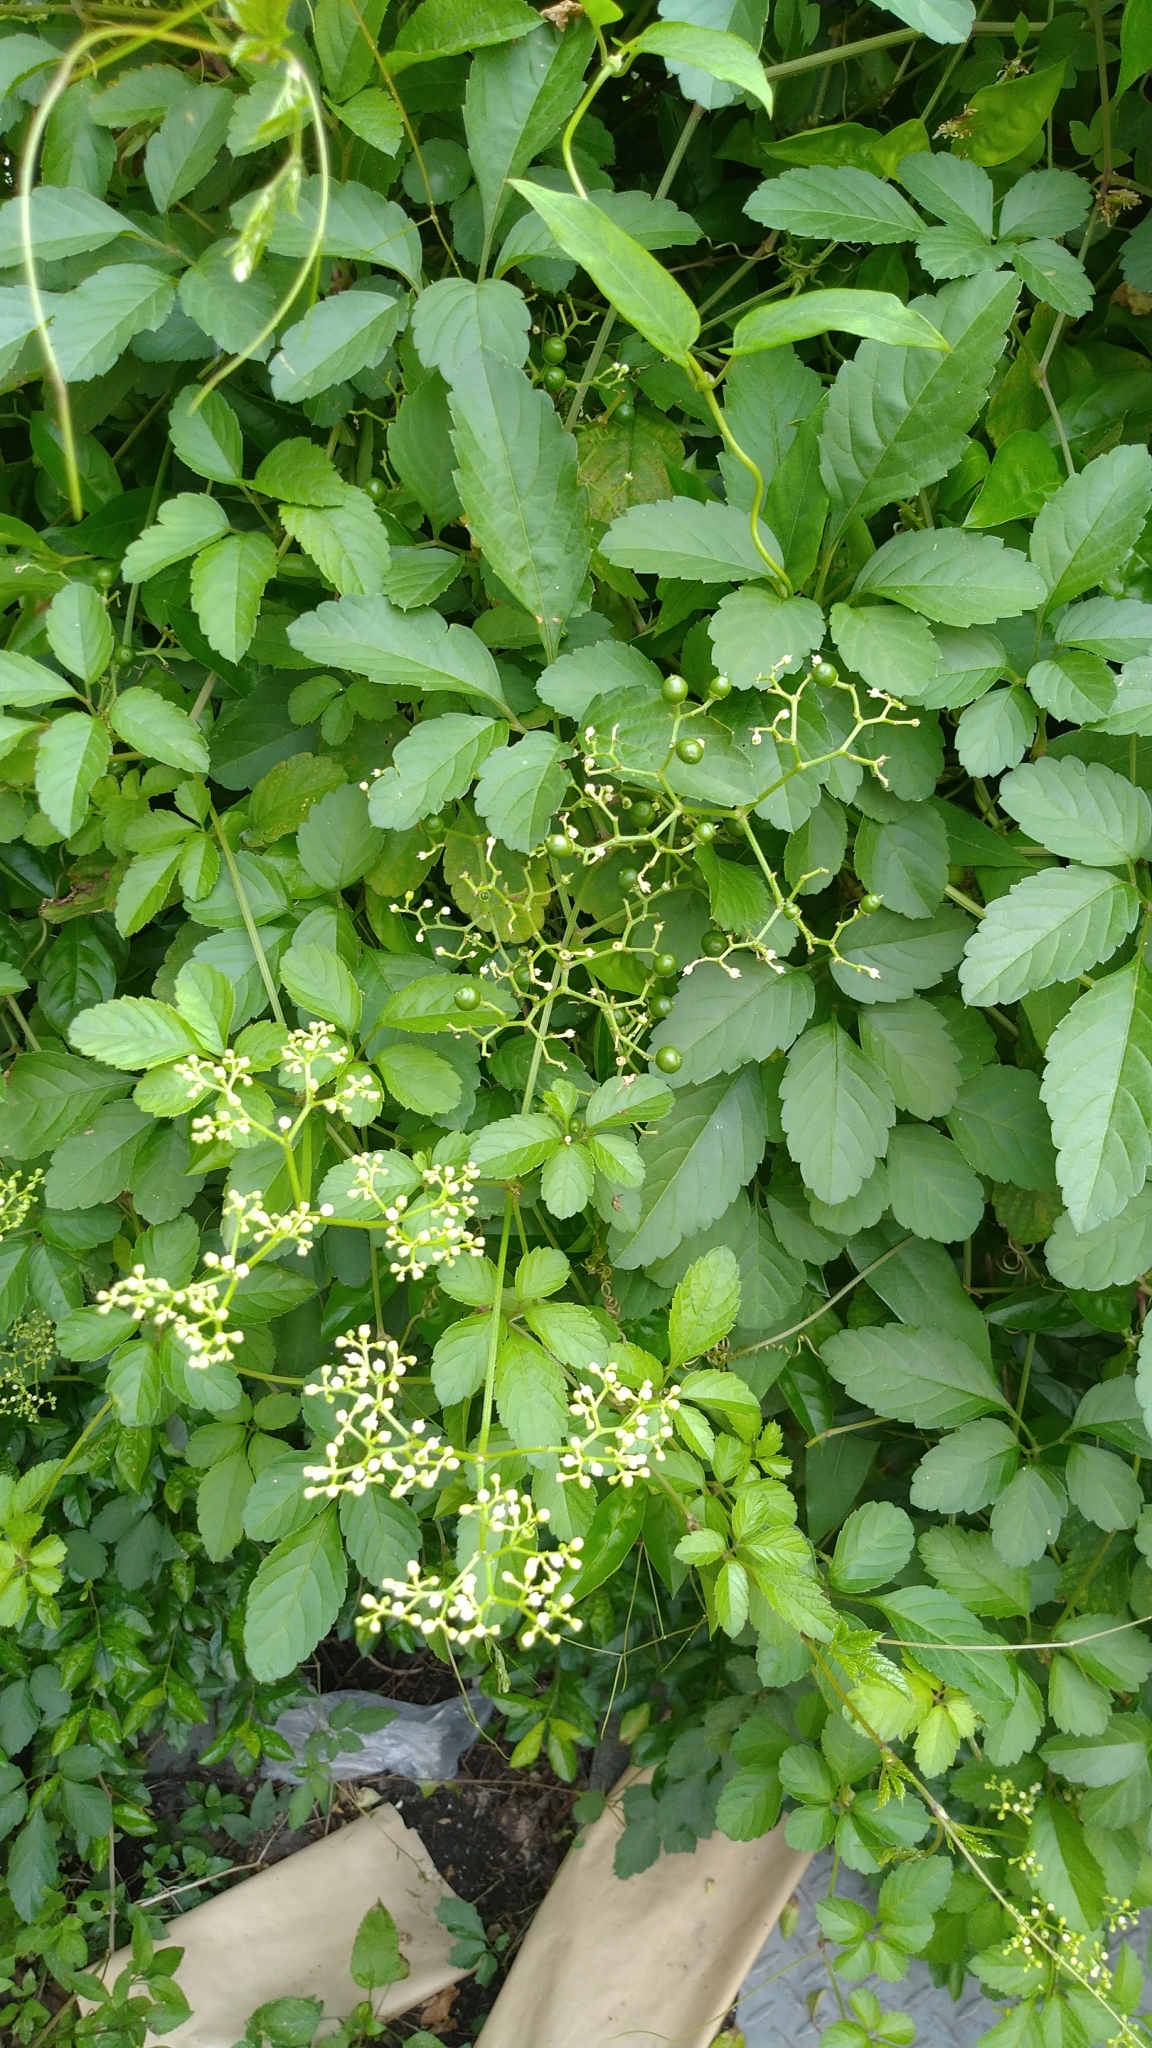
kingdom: Plantae
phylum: Tracheophyta
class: Magnoliopsida
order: Vitales
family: Vitaceae
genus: Causonis
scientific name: Causonis japonica
